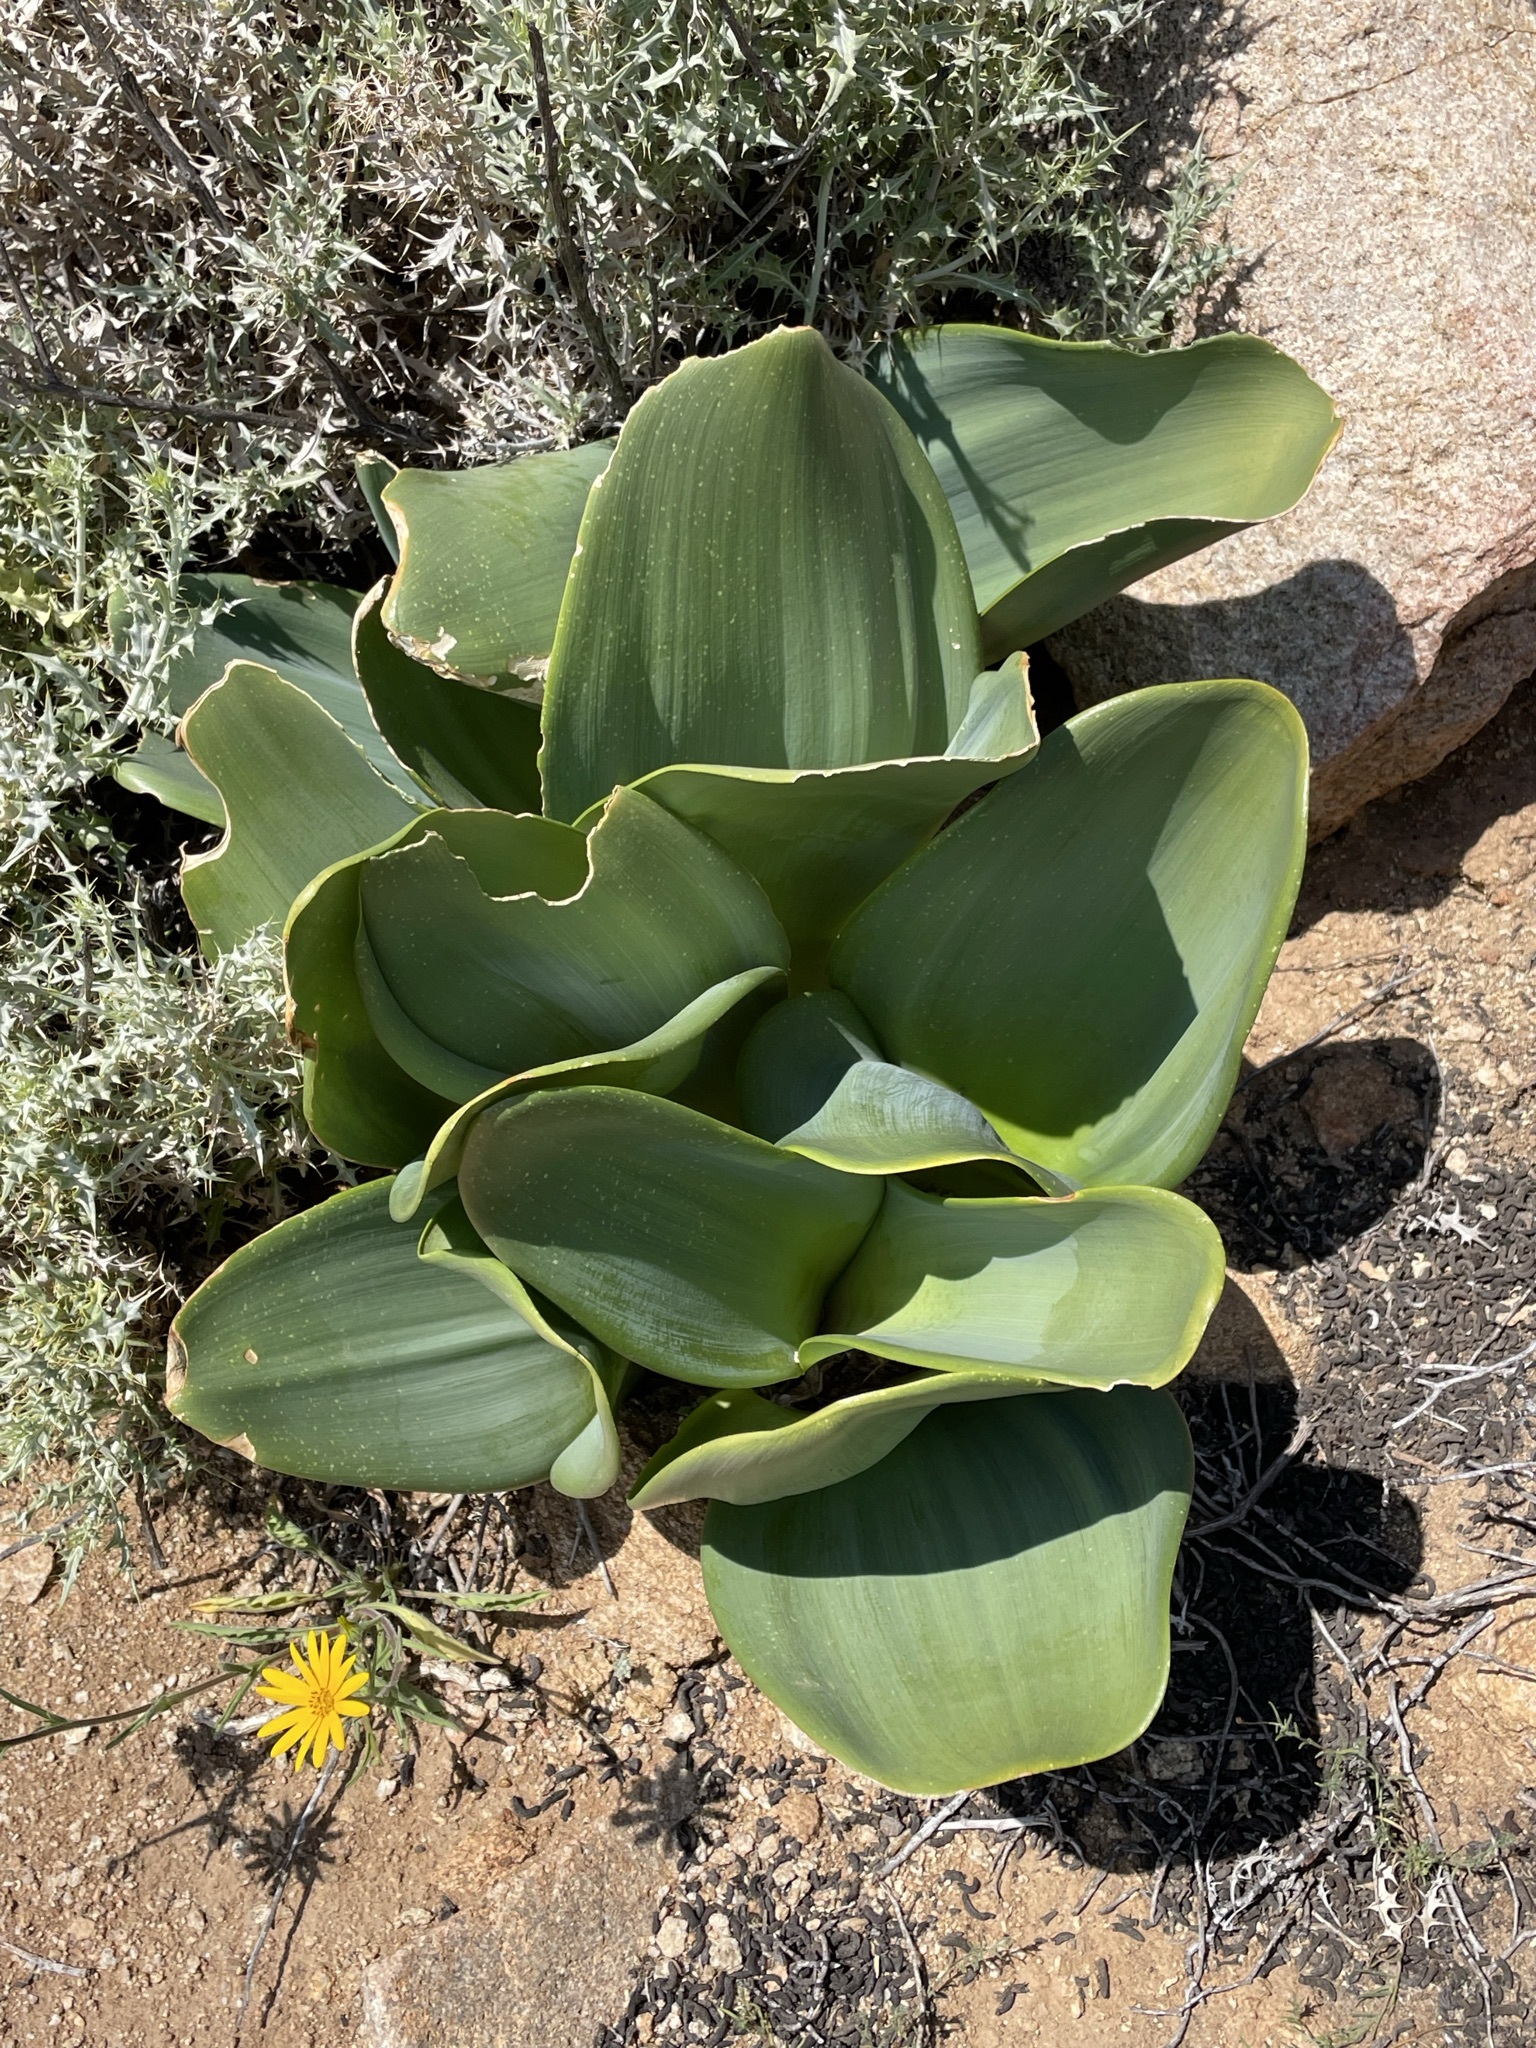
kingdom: Plantae
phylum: Tracheophyta
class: Liliopsida
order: Asparagales
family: Amaryllidaceae
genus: Haemanthus
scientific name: Haemanthus coccineus
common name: Cape-tulip
